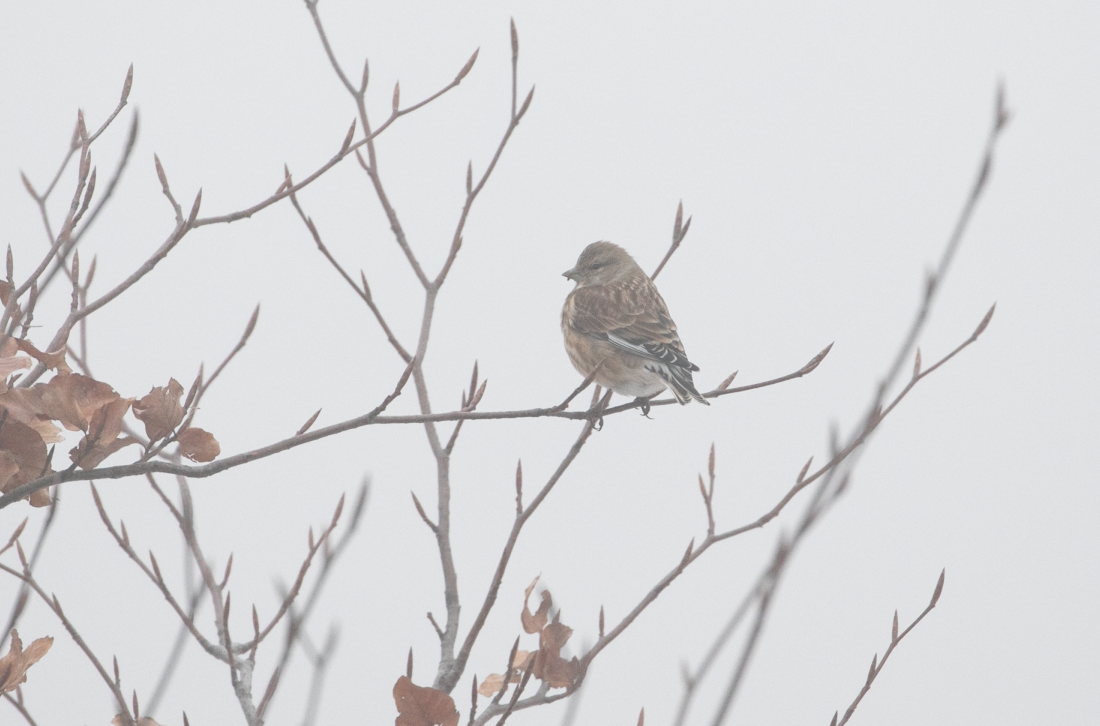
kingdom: Animalia
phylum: Chordata
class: Aves
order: Passeriformes
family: Fringillidae
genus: Linaria
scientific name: Linaria cannabina
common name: Common linnet
